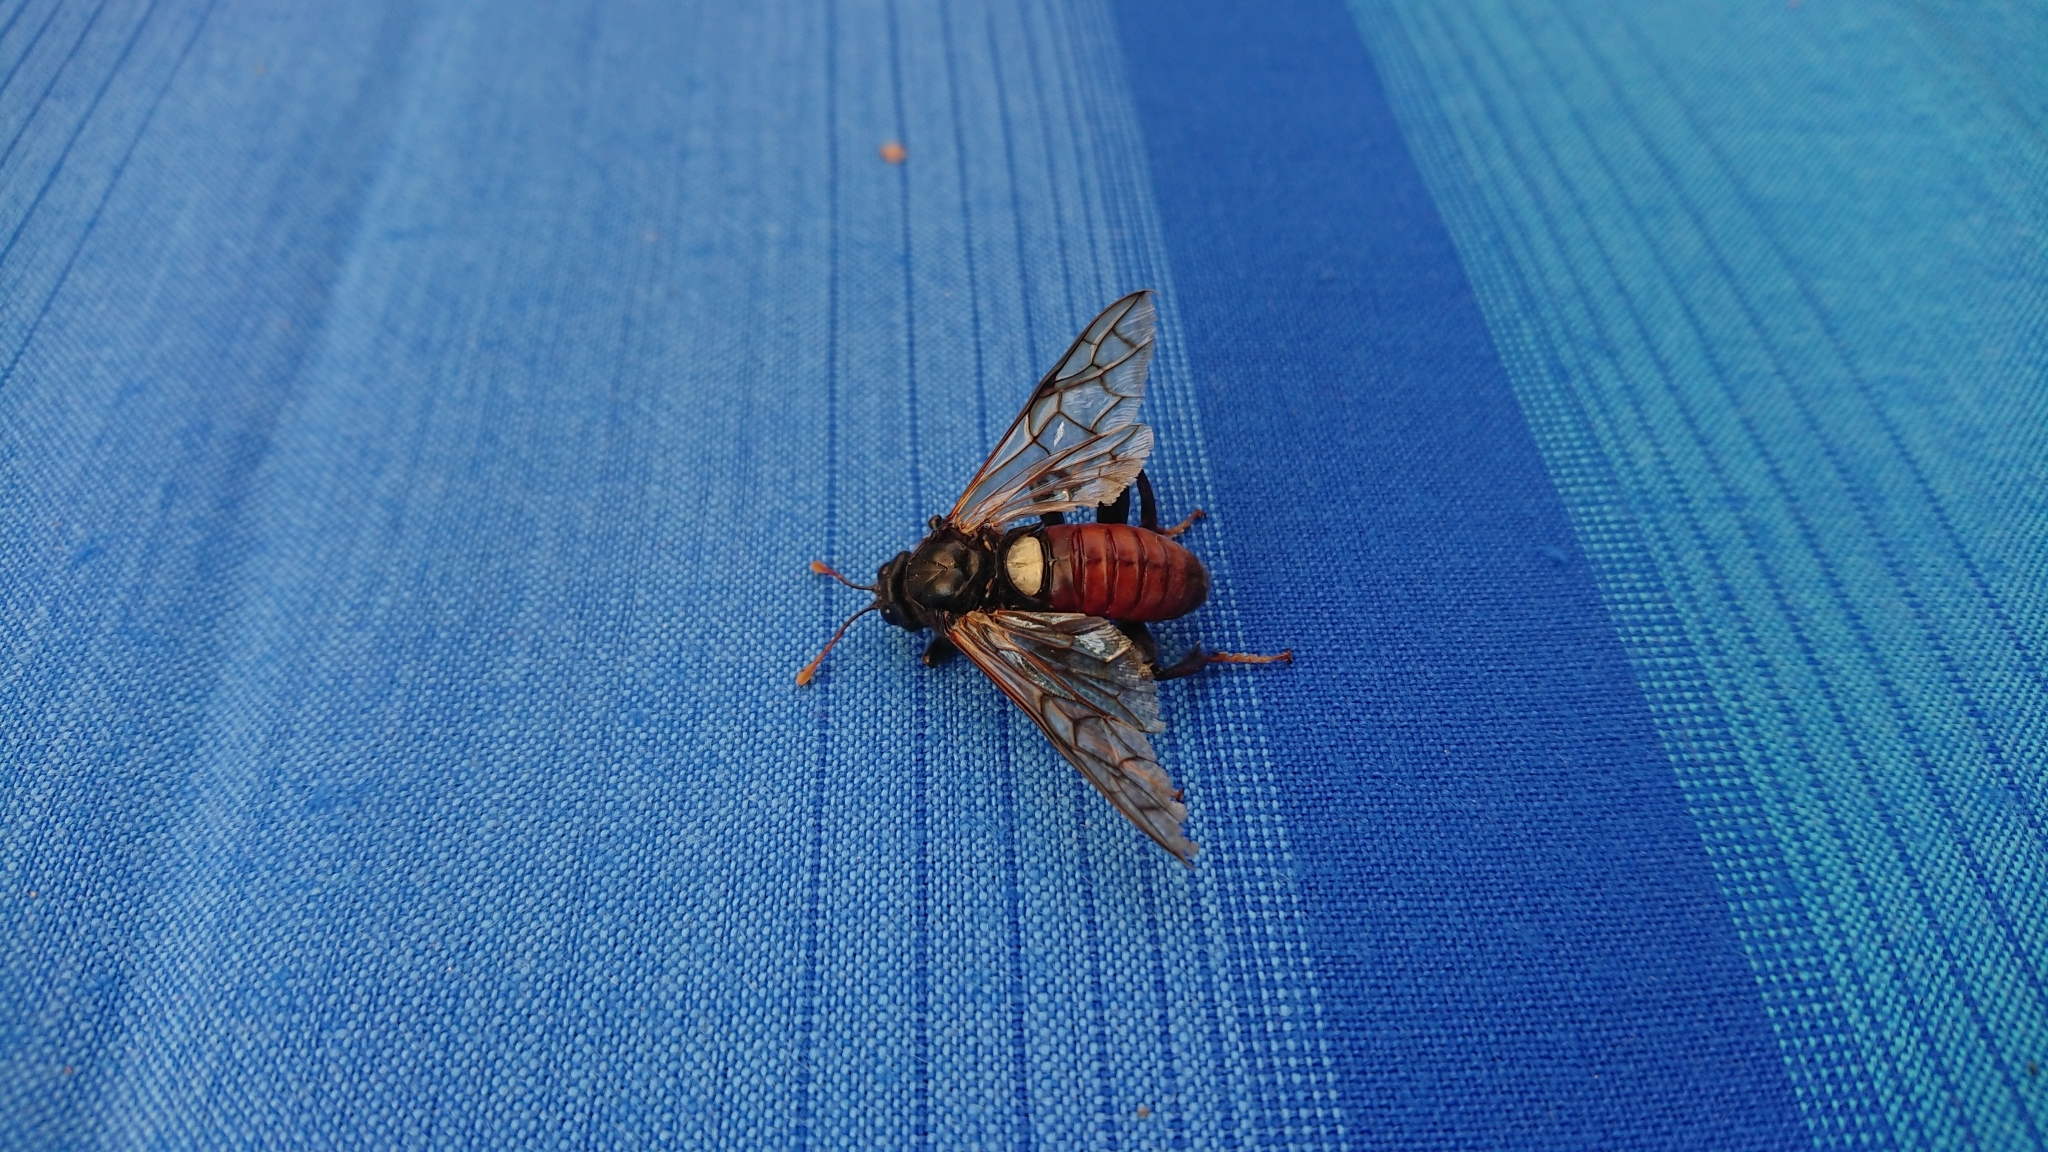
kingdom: Animalia
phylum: Arthropoda
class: Insecta
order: Hymenoptera
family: Cimbicidae
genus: Cimbex
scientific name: Cimbex femoratus
